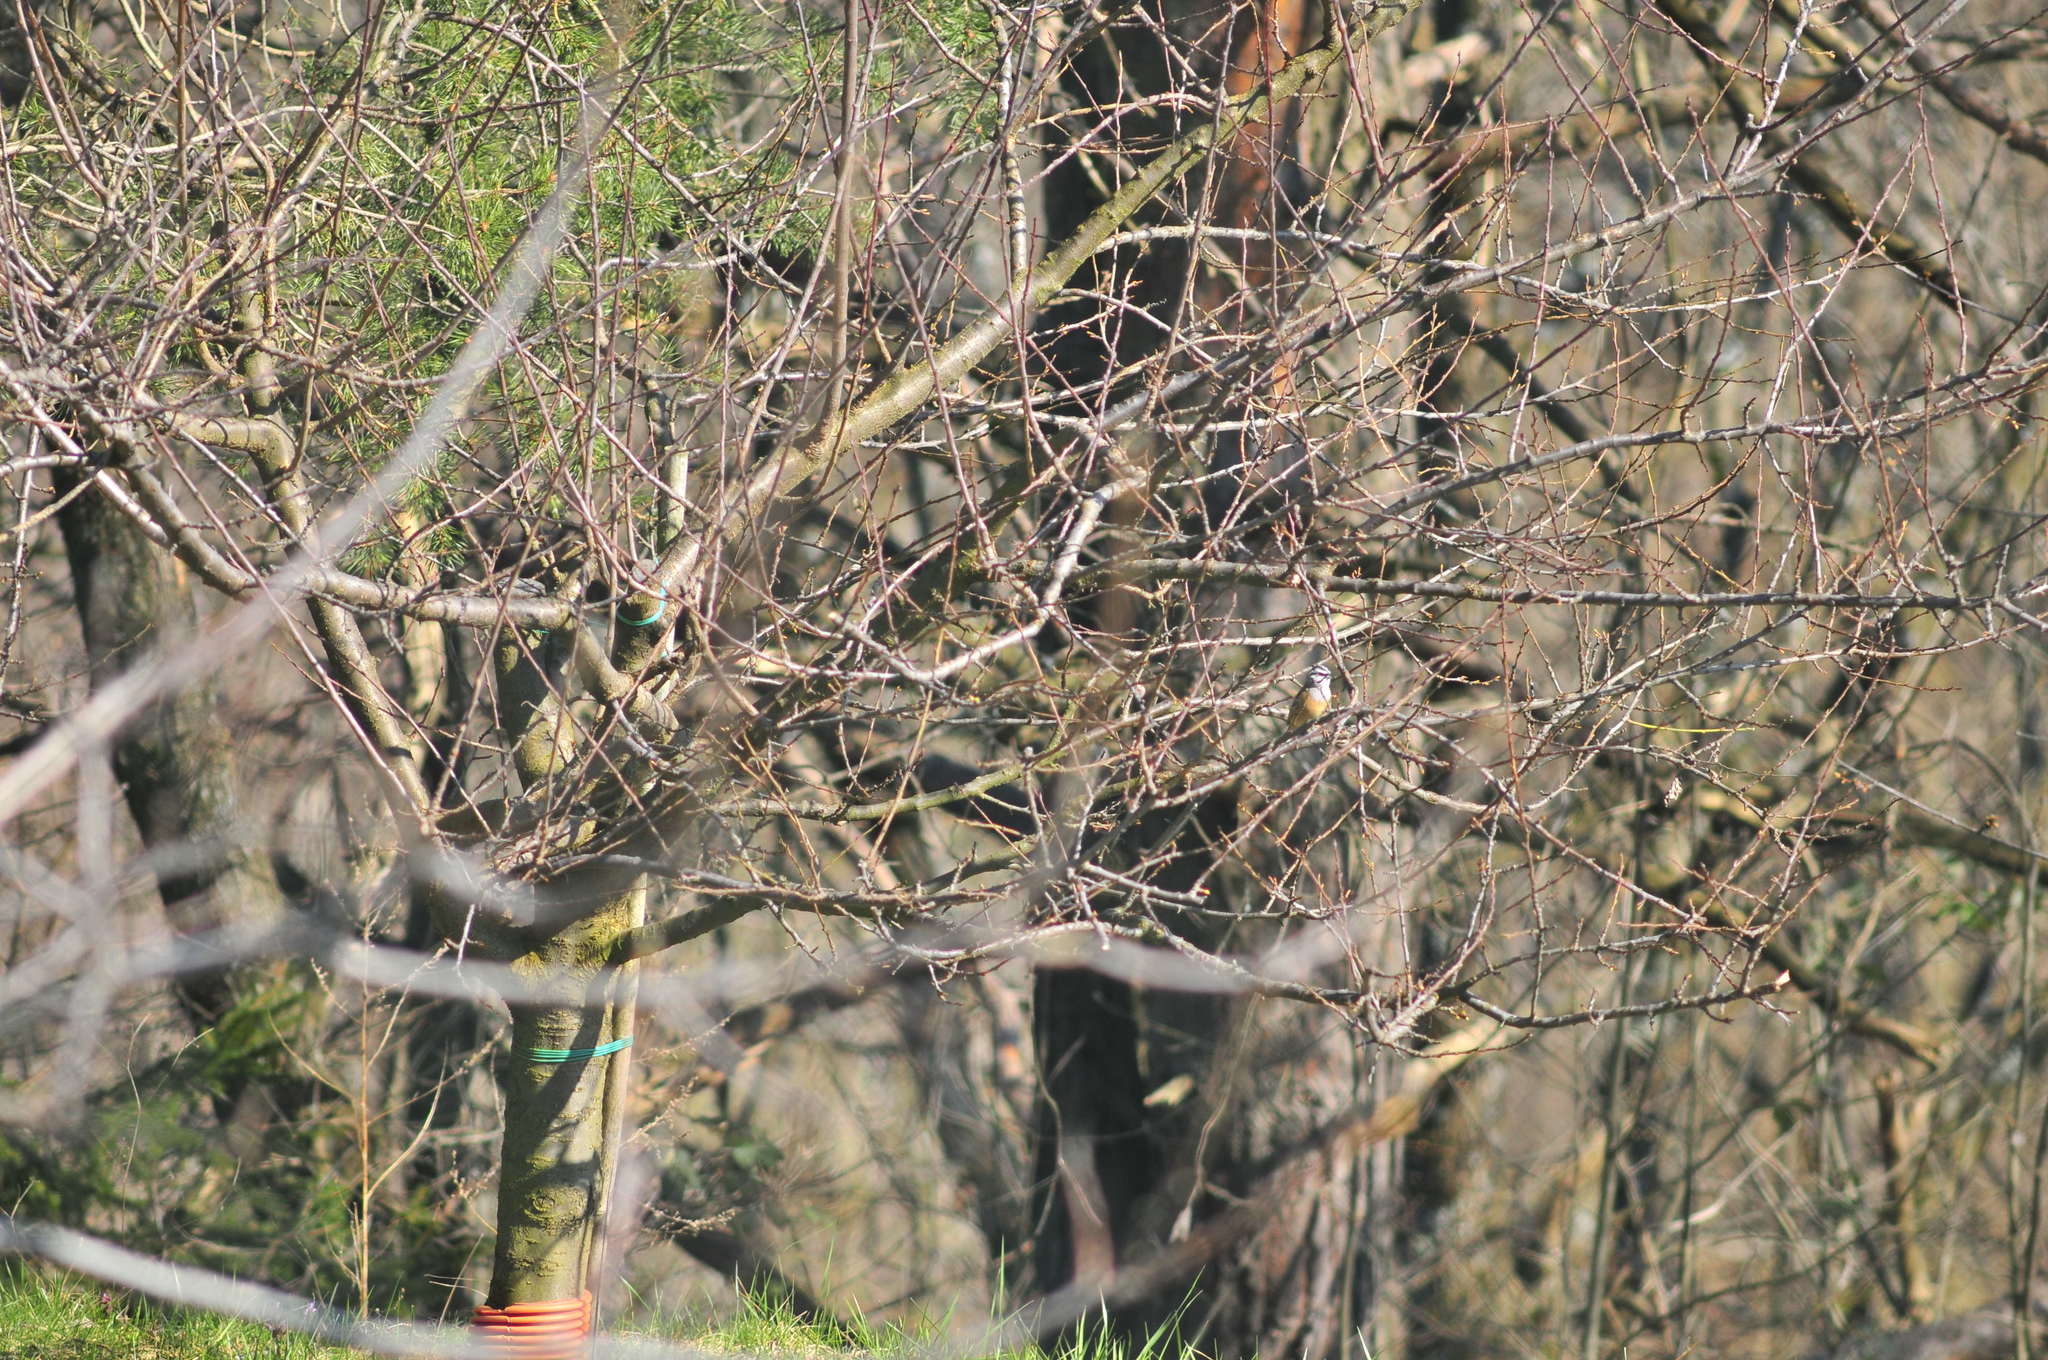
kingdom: Animalia
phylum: Chordata
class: Aves
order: Passeriformes
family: Emberizidae
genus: Emberiza
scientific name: Emberiza cia
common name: Rock bunting
